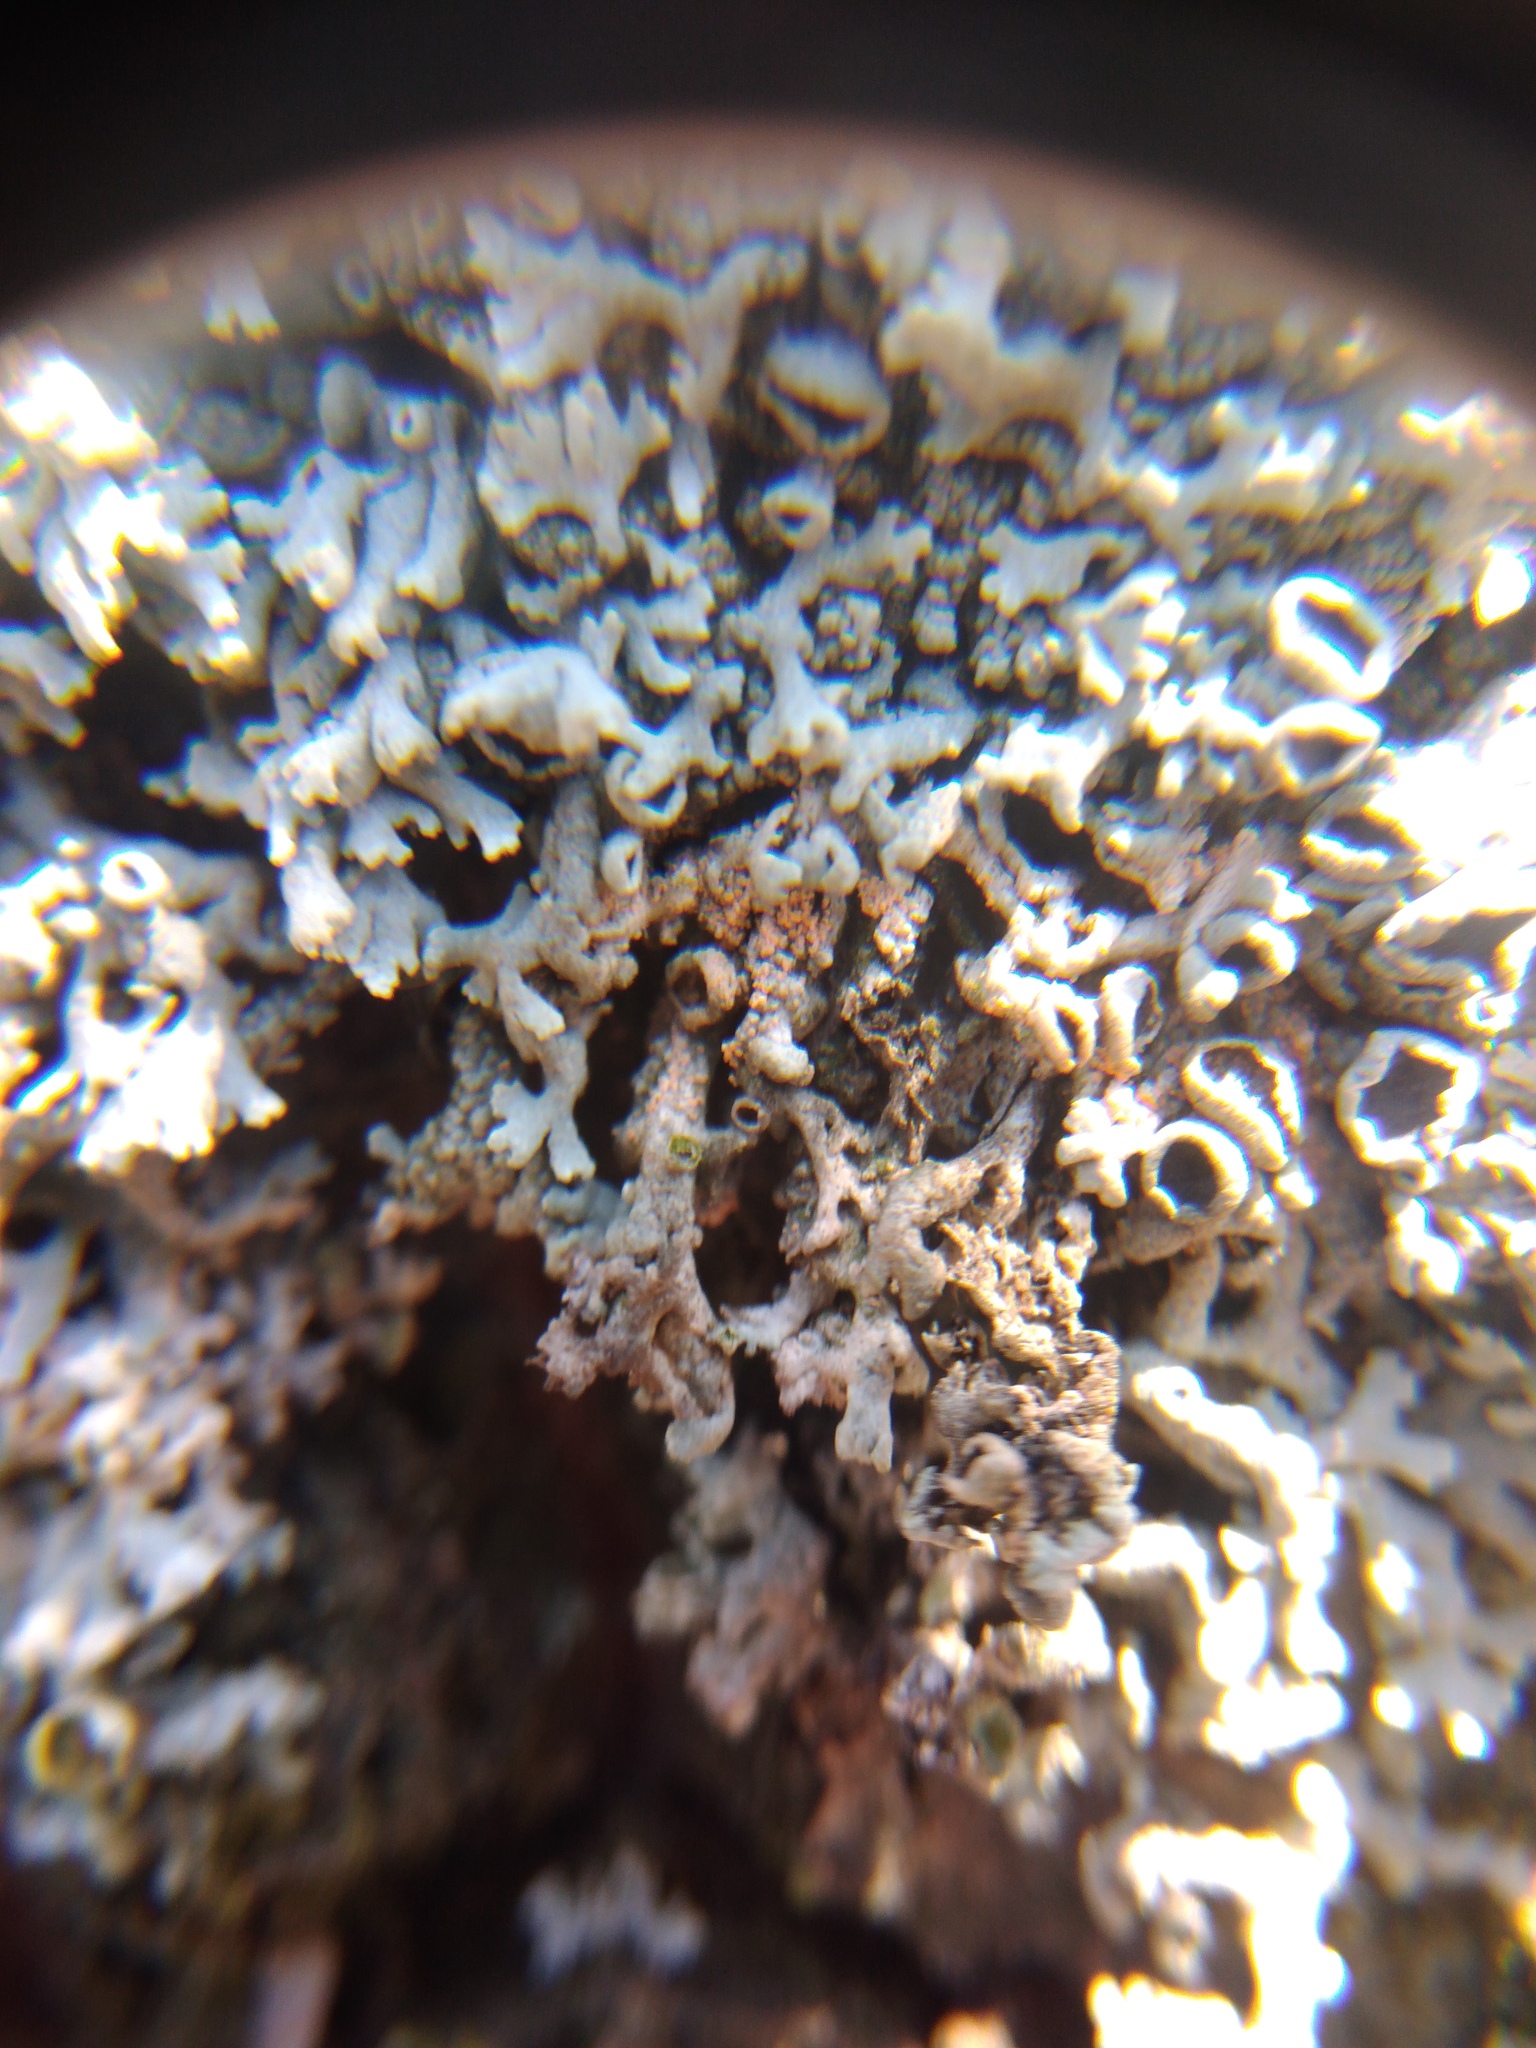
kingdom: Fungi
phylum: Basidiomycota
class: Agaricomycetes
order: Corticiales
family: Corticiaceae
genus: Erythricium
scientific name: Erythricium aurantiacum
